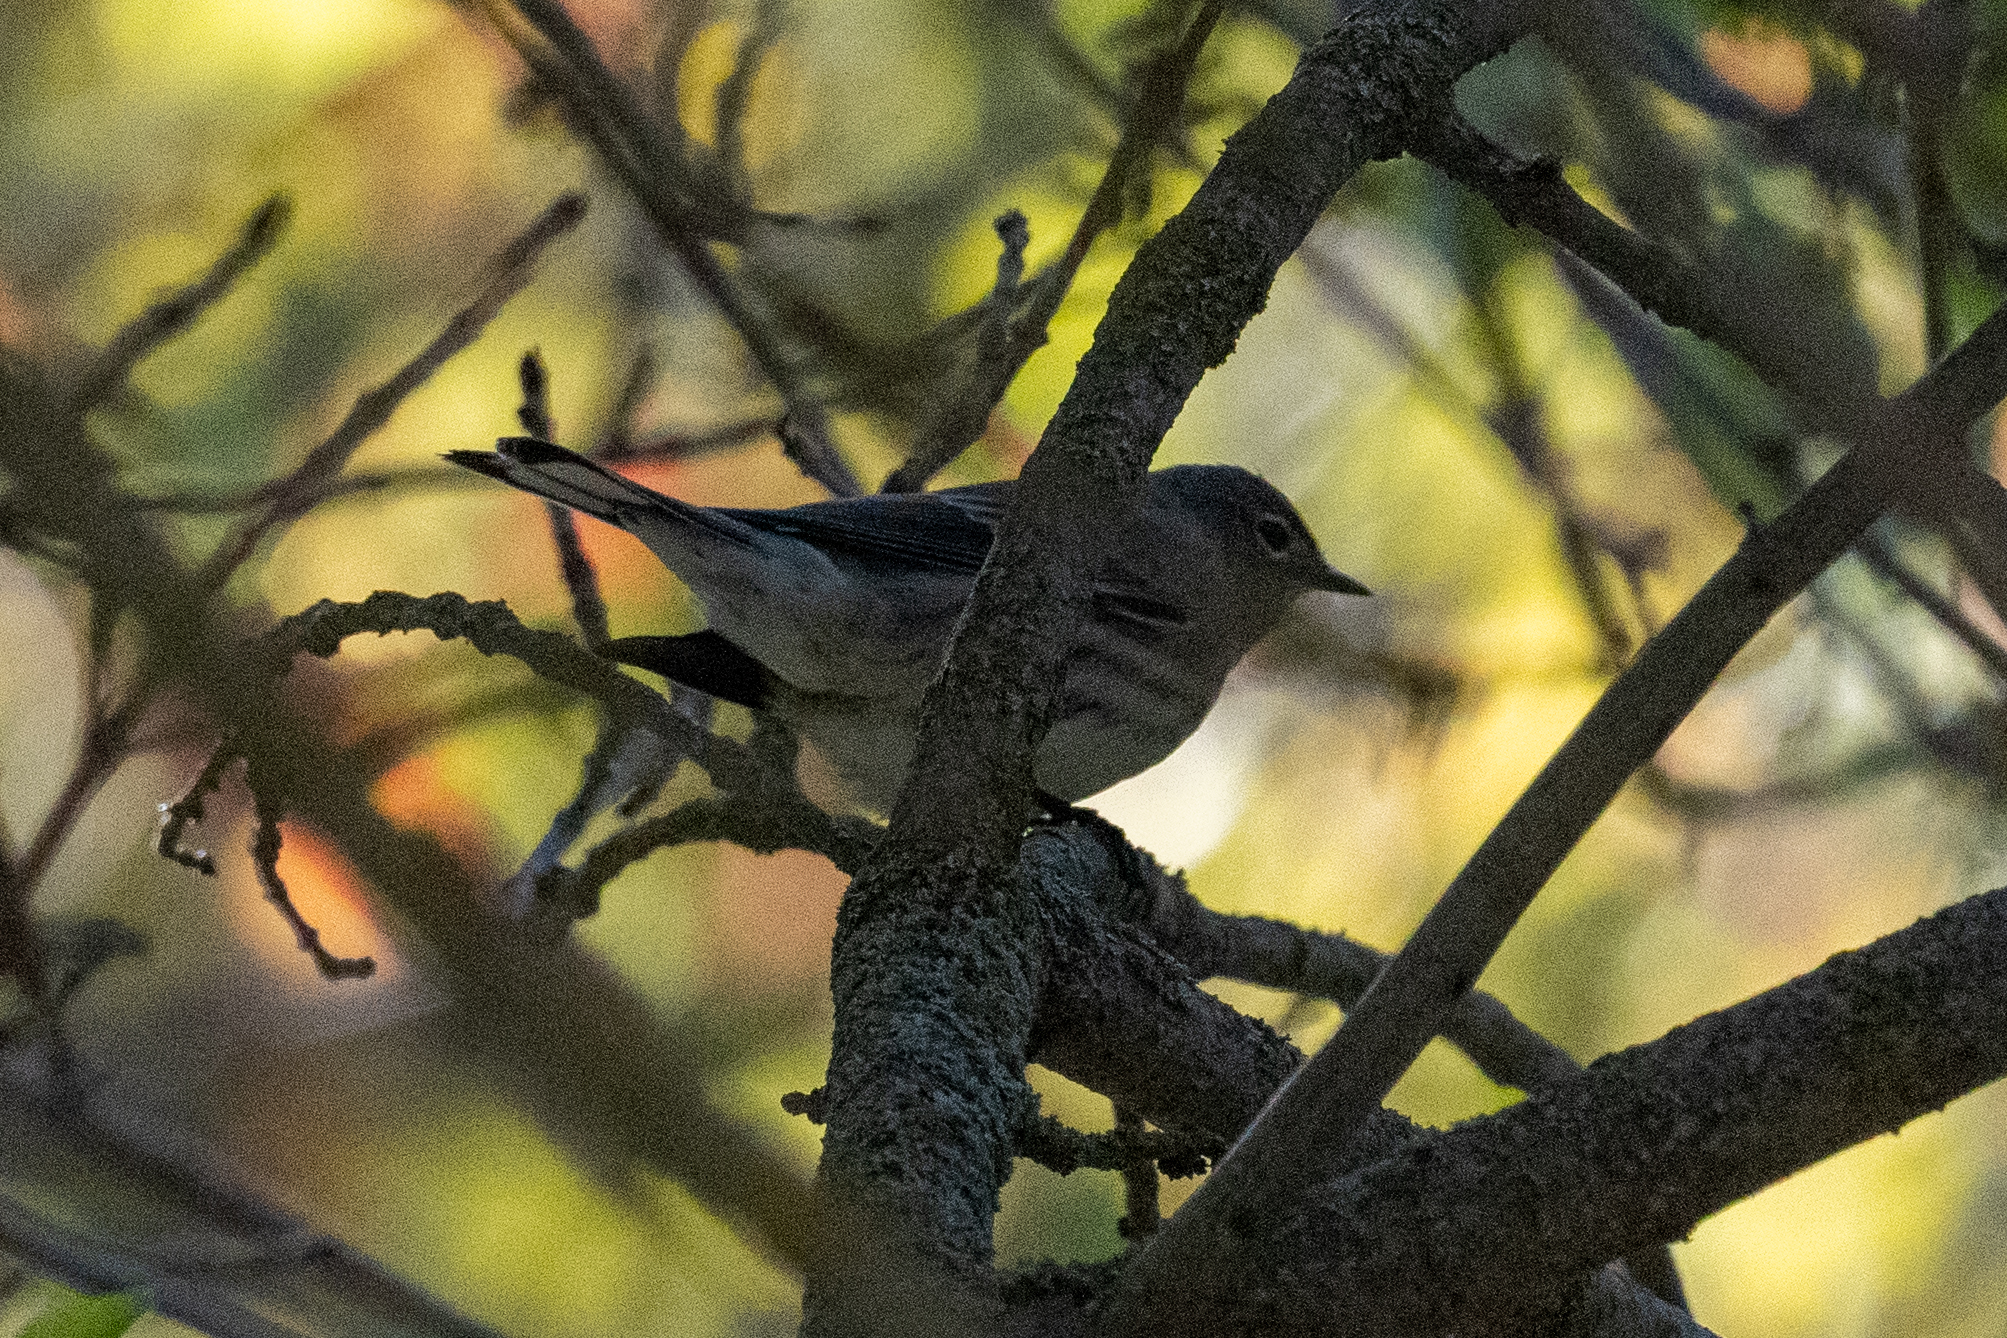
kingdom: Animalia
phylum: Chordata
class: Aves
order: Passeriformes
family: Parulidae
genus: Setophaga
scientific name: Setophaga coronata
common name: Myrtle warbler
